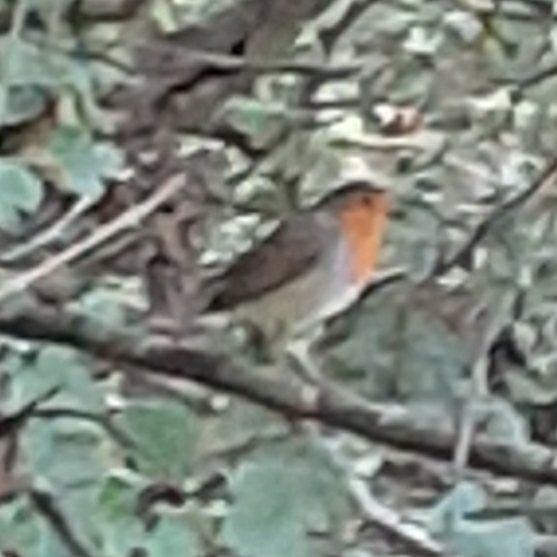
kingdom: Animalia
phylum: Chordata
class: Aves
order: Passeriformes
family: Muscicapidae
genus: Erithacus
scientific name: Erithacus rubecula
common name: European robin
